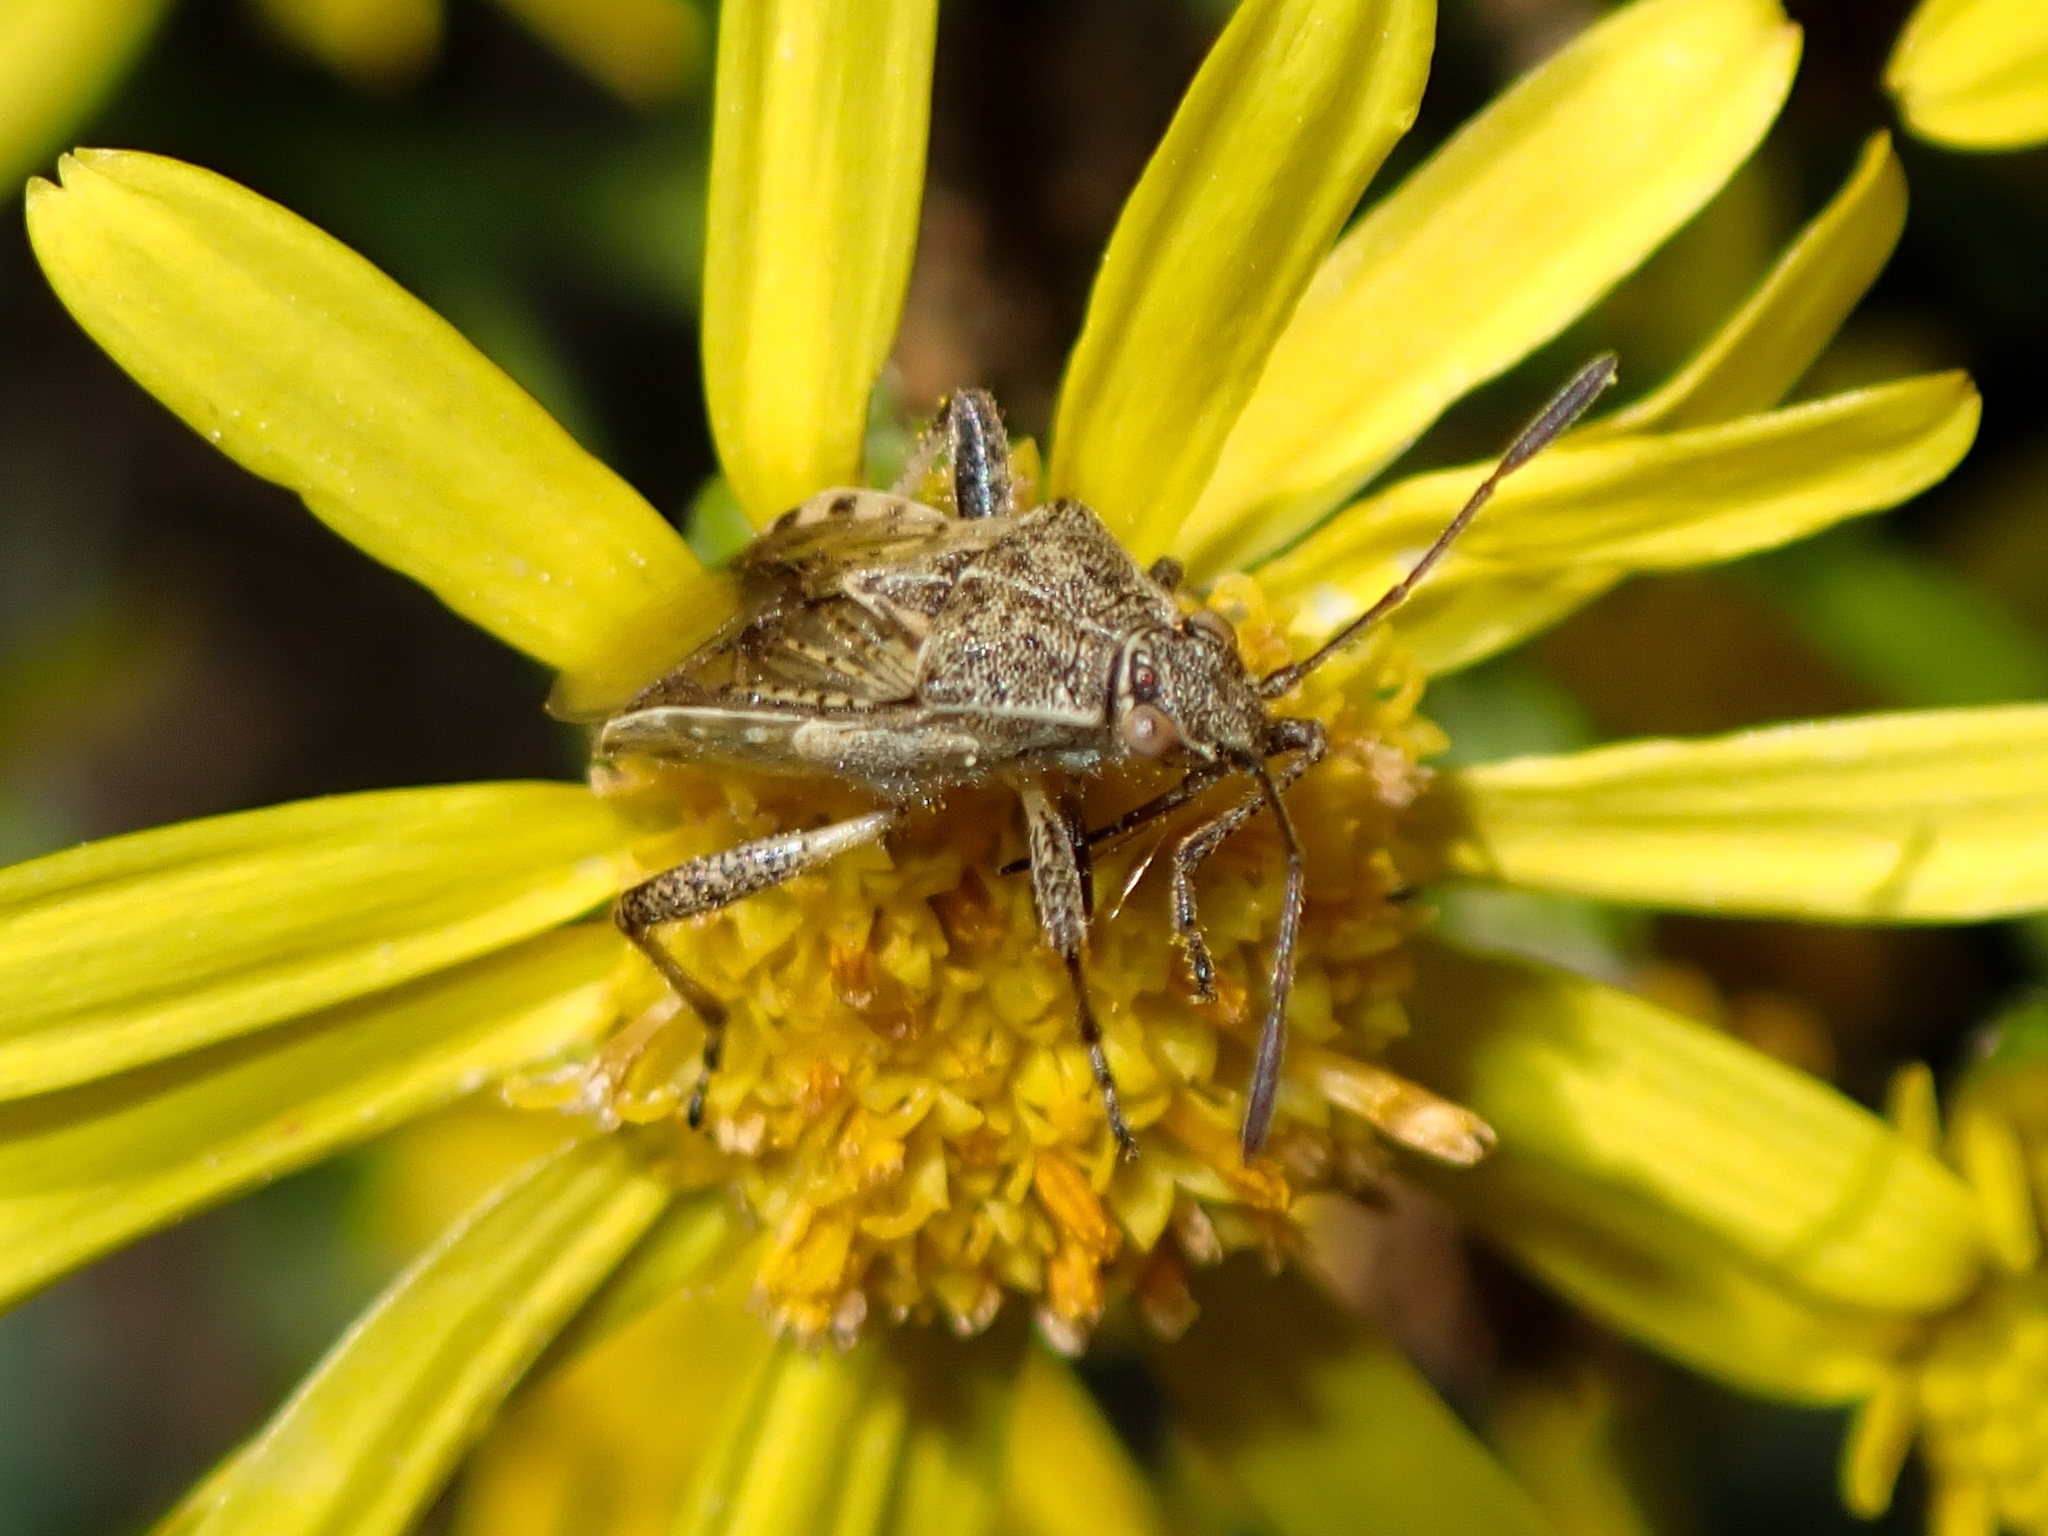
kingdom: Animalia
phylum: Arthropoda
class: Insecta
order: Hemiptera
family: Rhopalidae
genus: Stictopleurus
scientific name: Stictopleurus punctatonervosus
